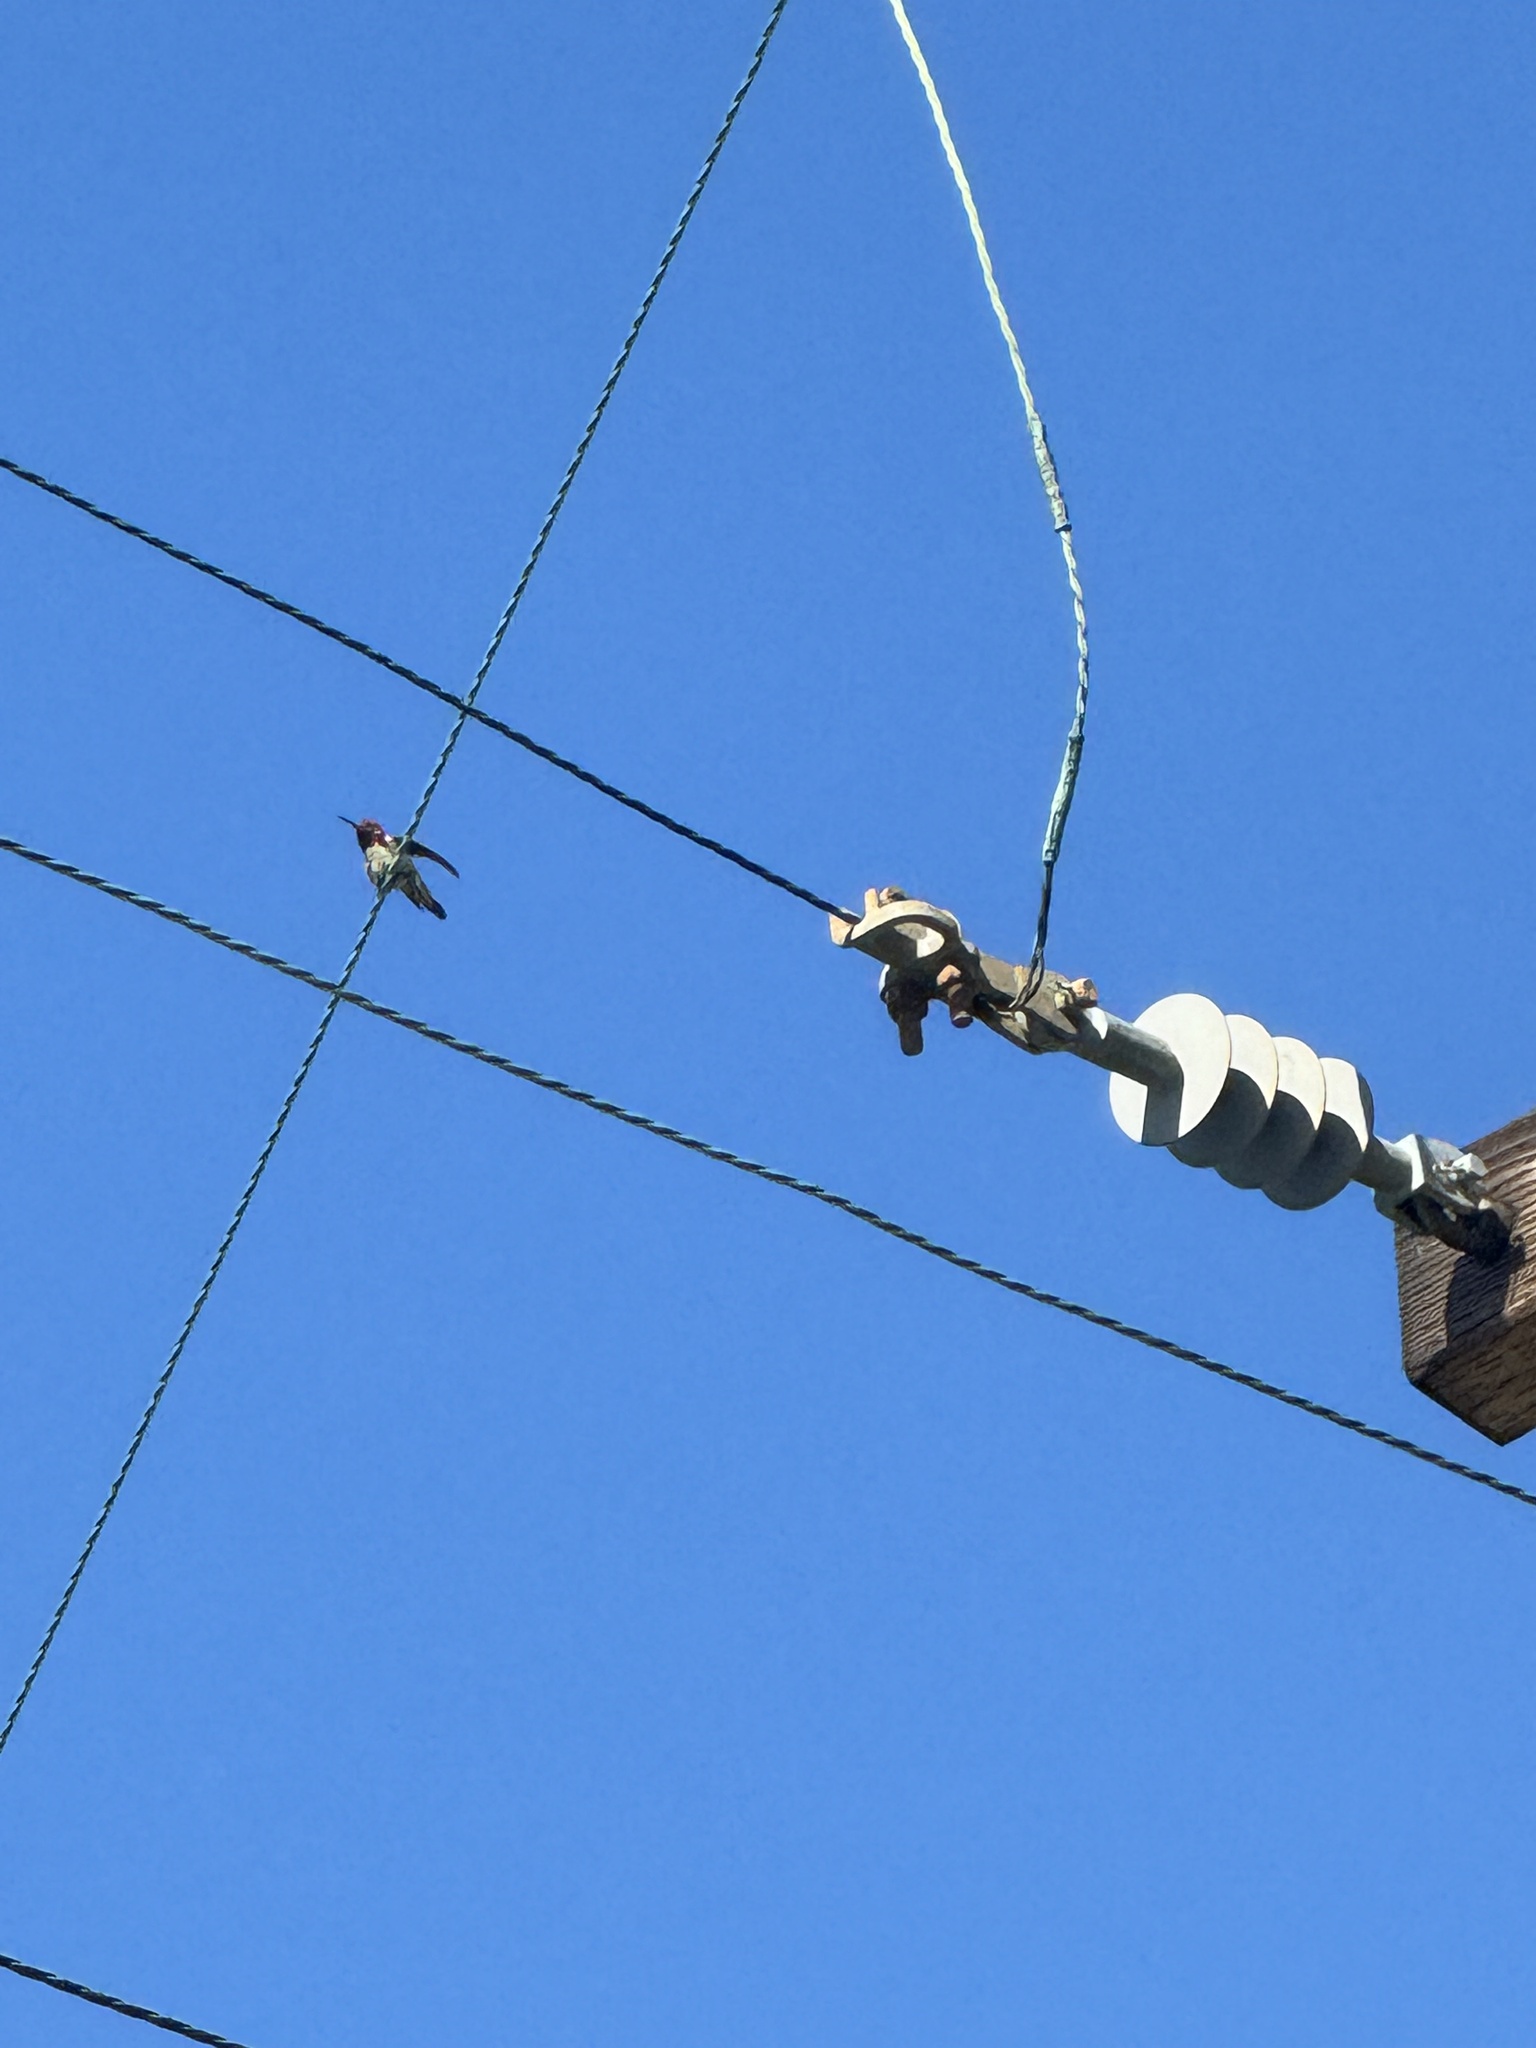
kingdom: Animalia
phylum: Chordata
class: Aves
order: Apodiformes
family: Trochilidae
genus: Calypte
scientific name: Calypte anna
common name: Anna's hummingbird
